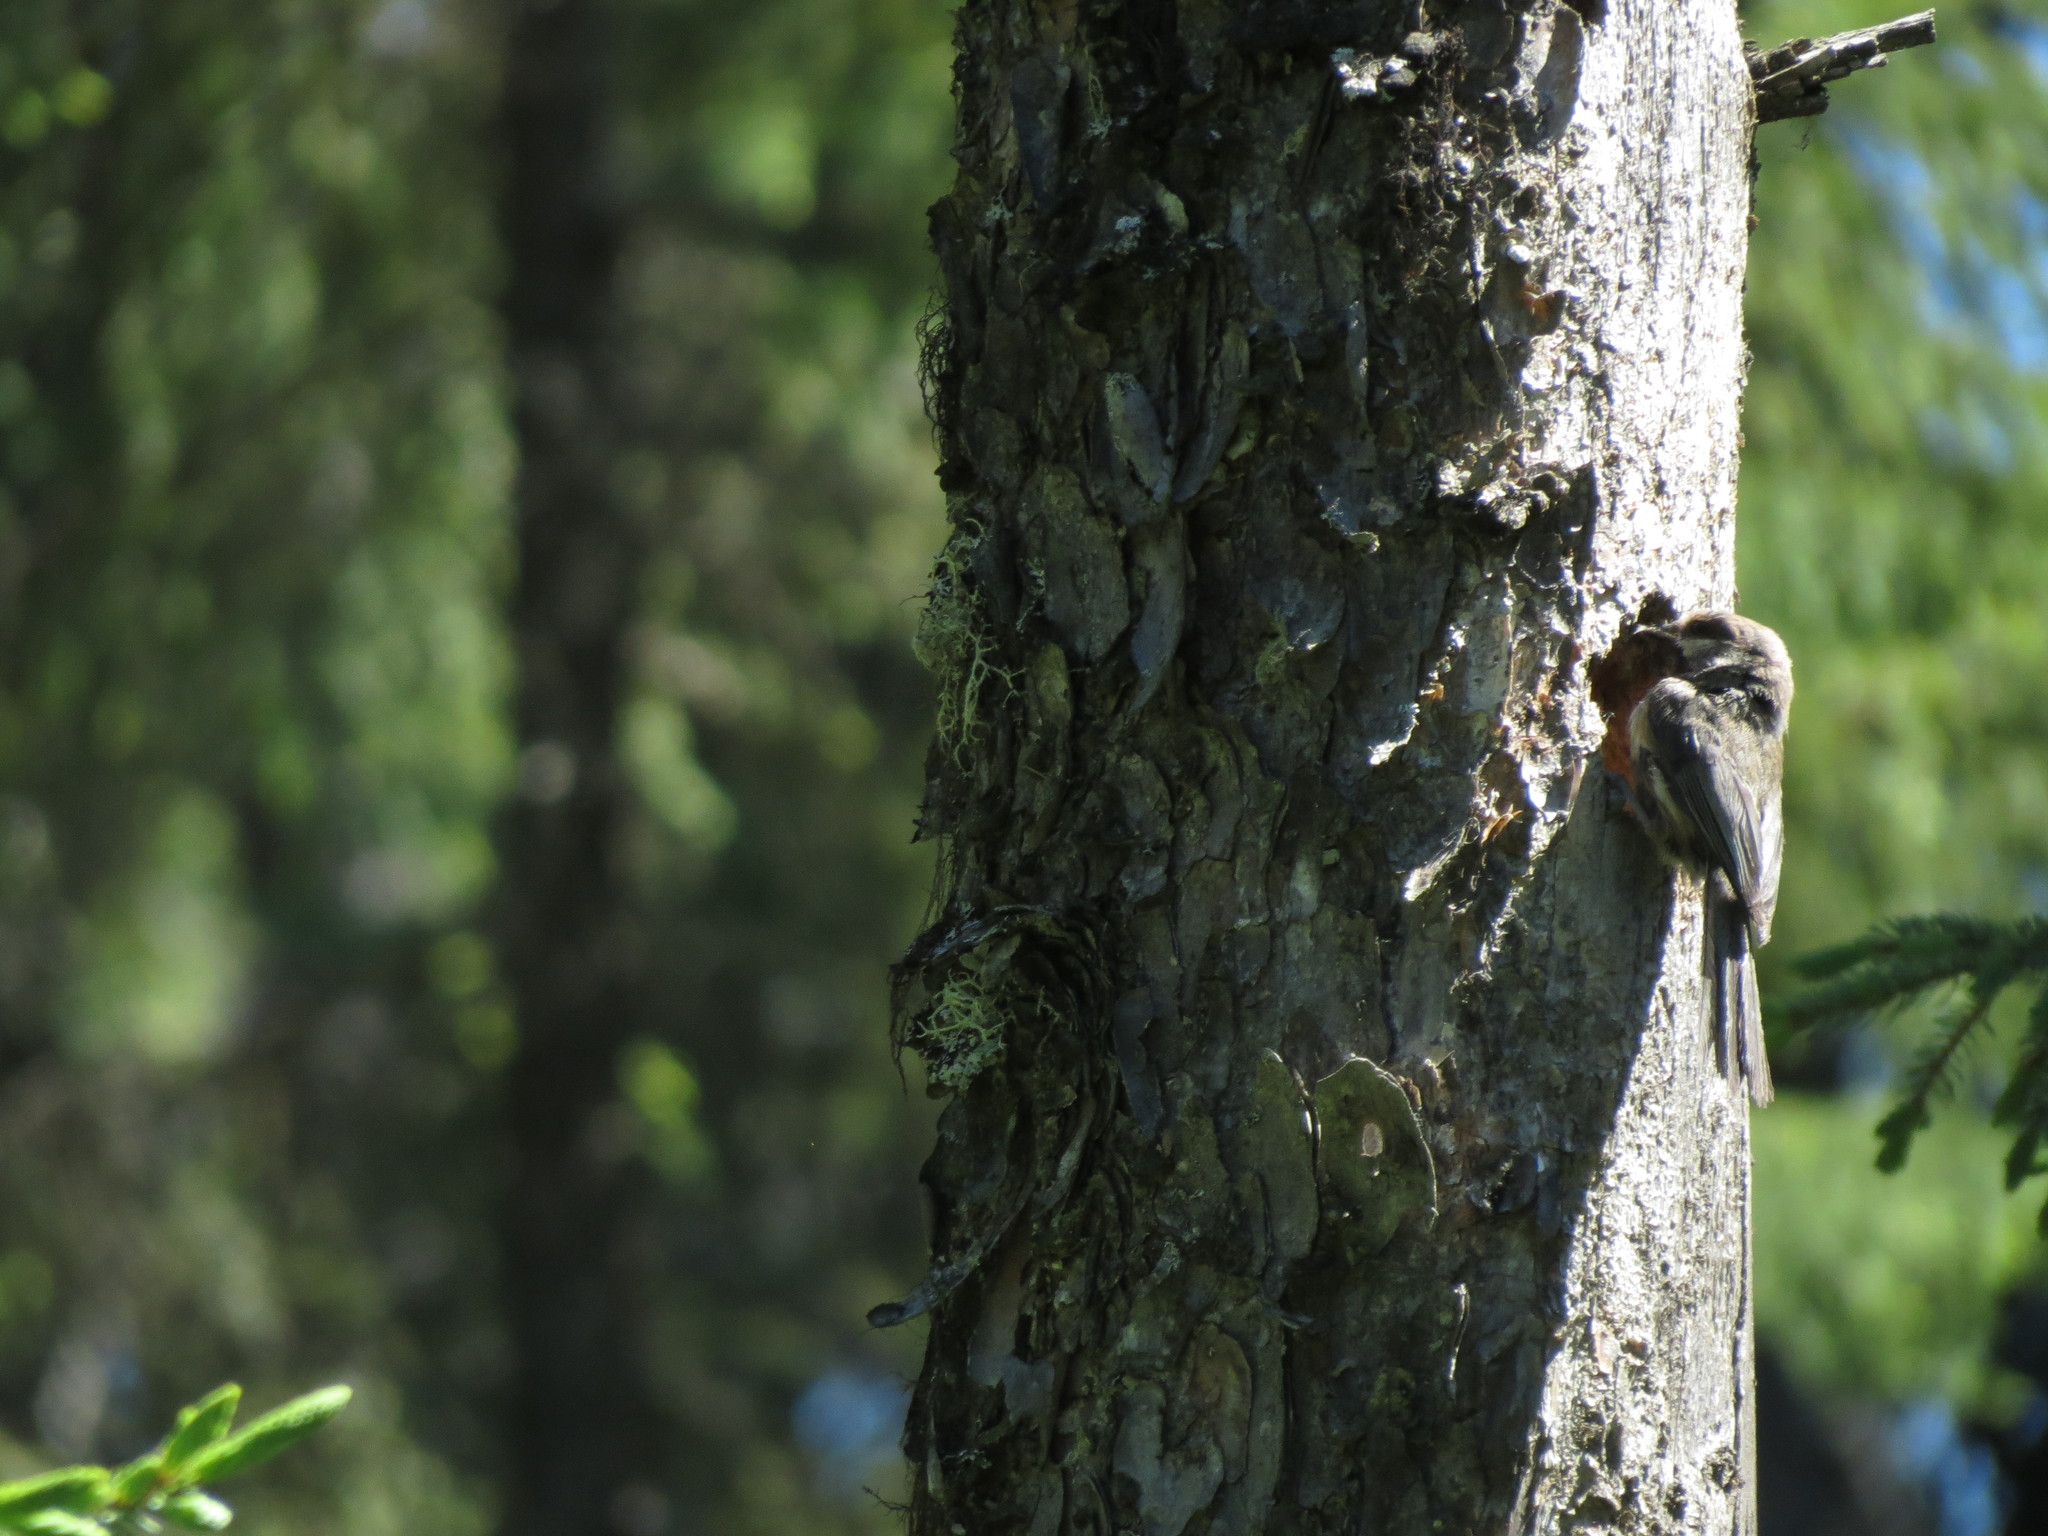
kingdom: Animalia
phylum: Chordata
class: Aves
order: Passeriformes
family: Paridae
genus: Poecile
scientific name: Poecile hudsonicus
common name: Boreal chickadee
